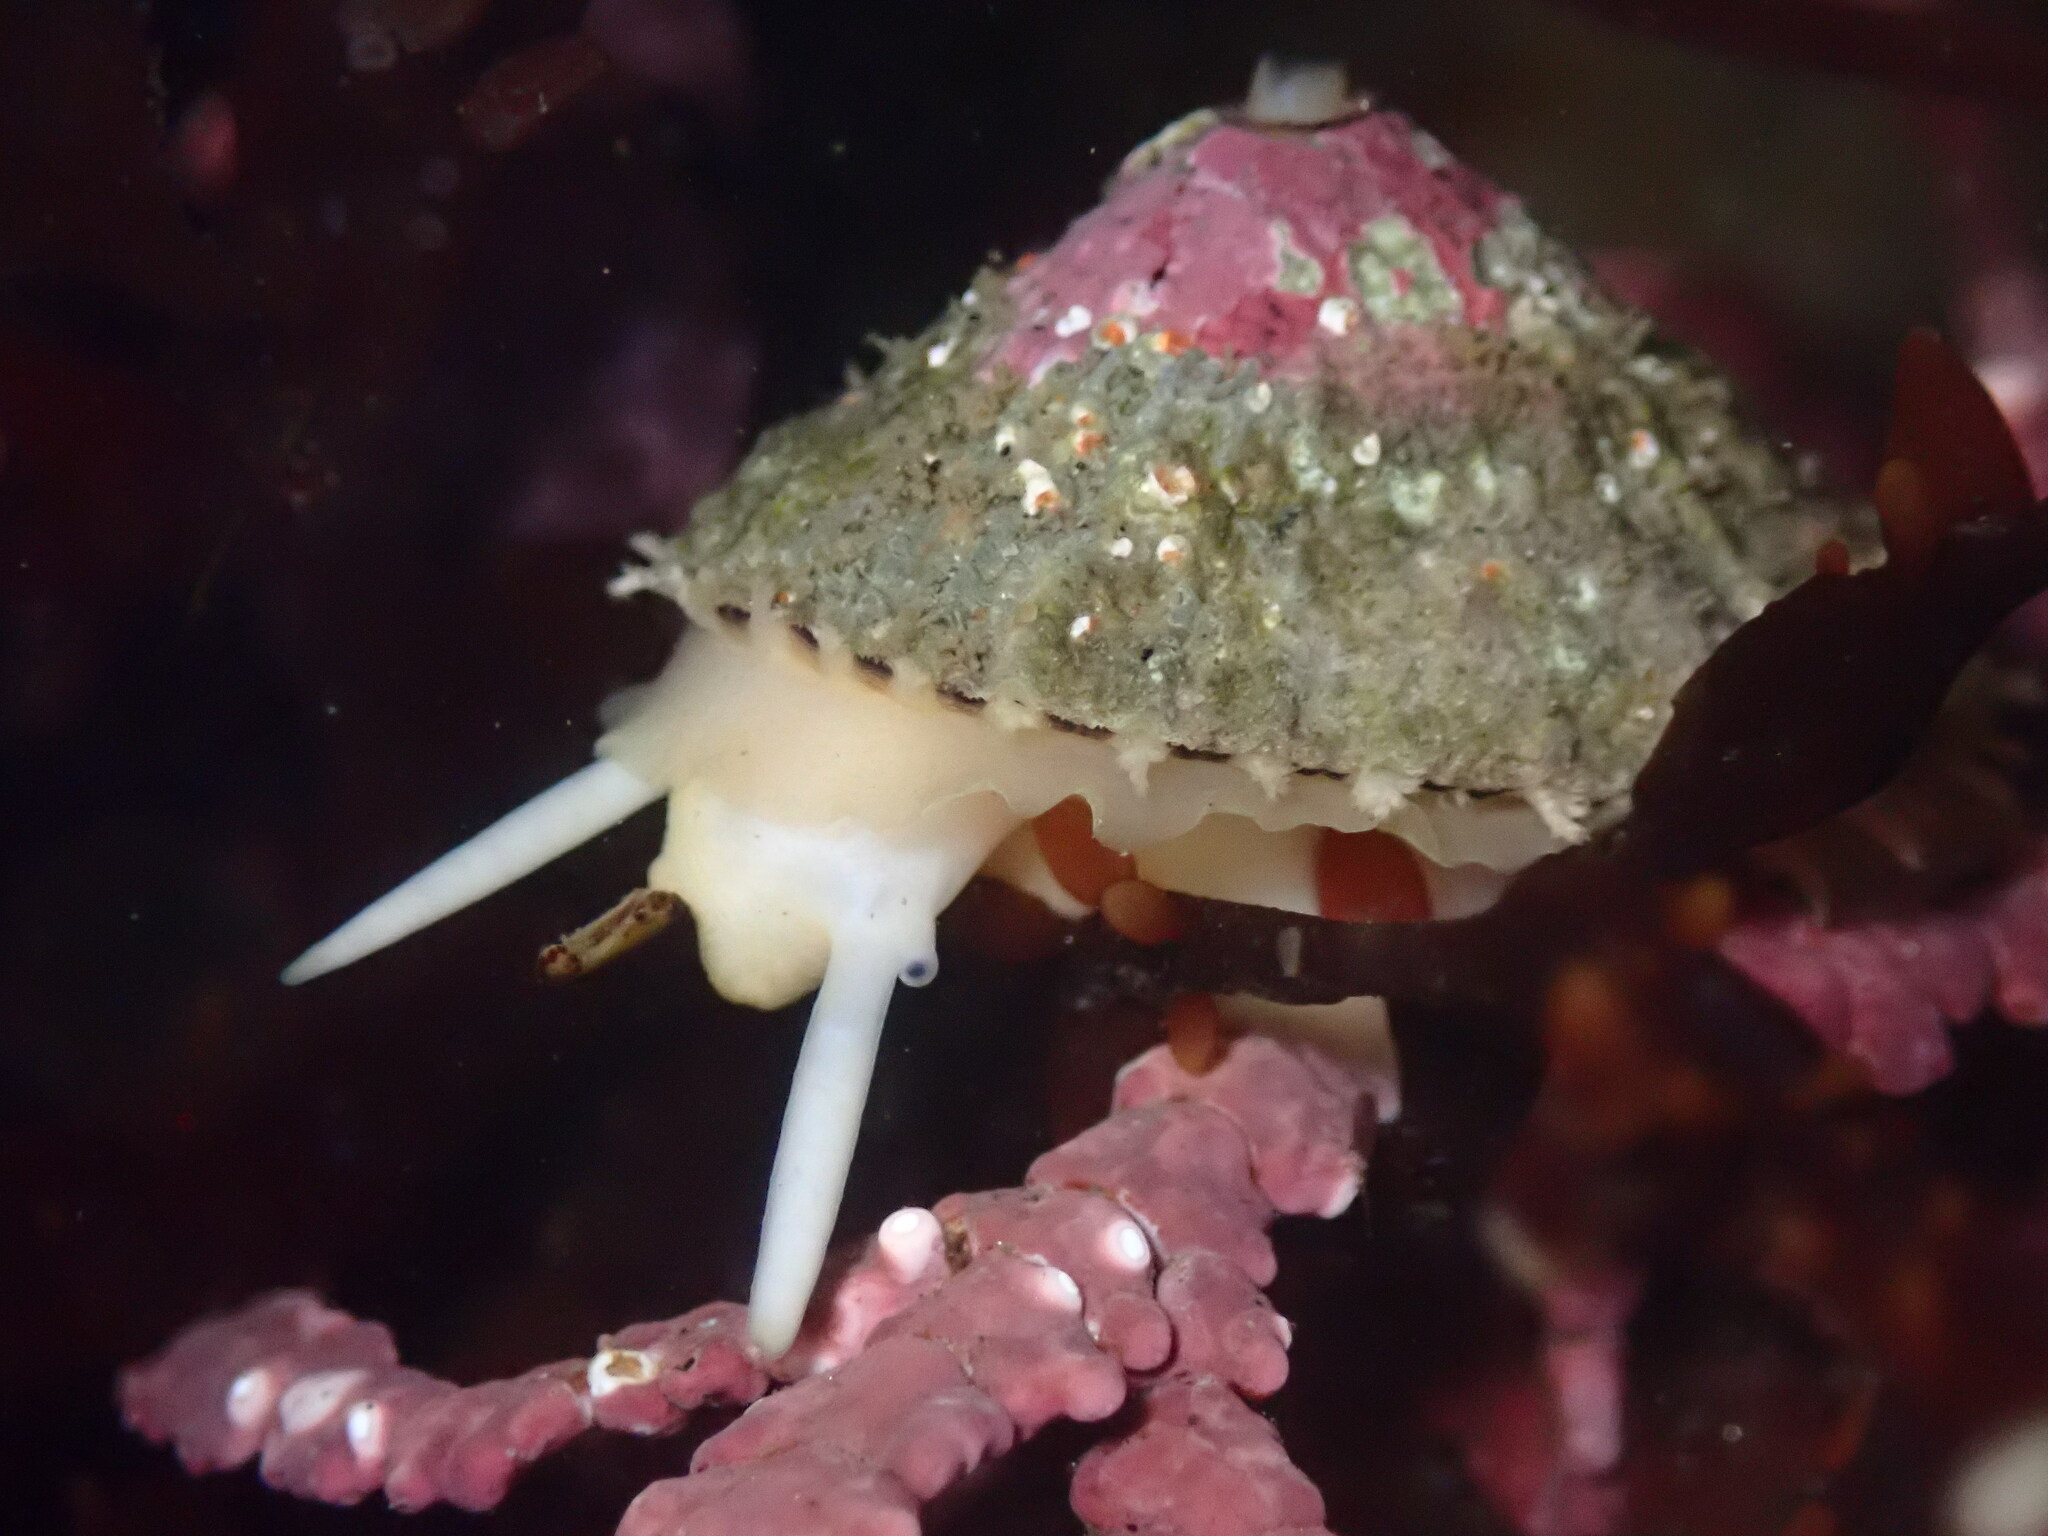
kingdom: Animalia
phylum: Mollusca
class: Gastropoda
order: Lepetellida
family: Fissurellidae
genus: Diodora
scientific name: Diodora aspera
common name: Rough keyhole limpet
